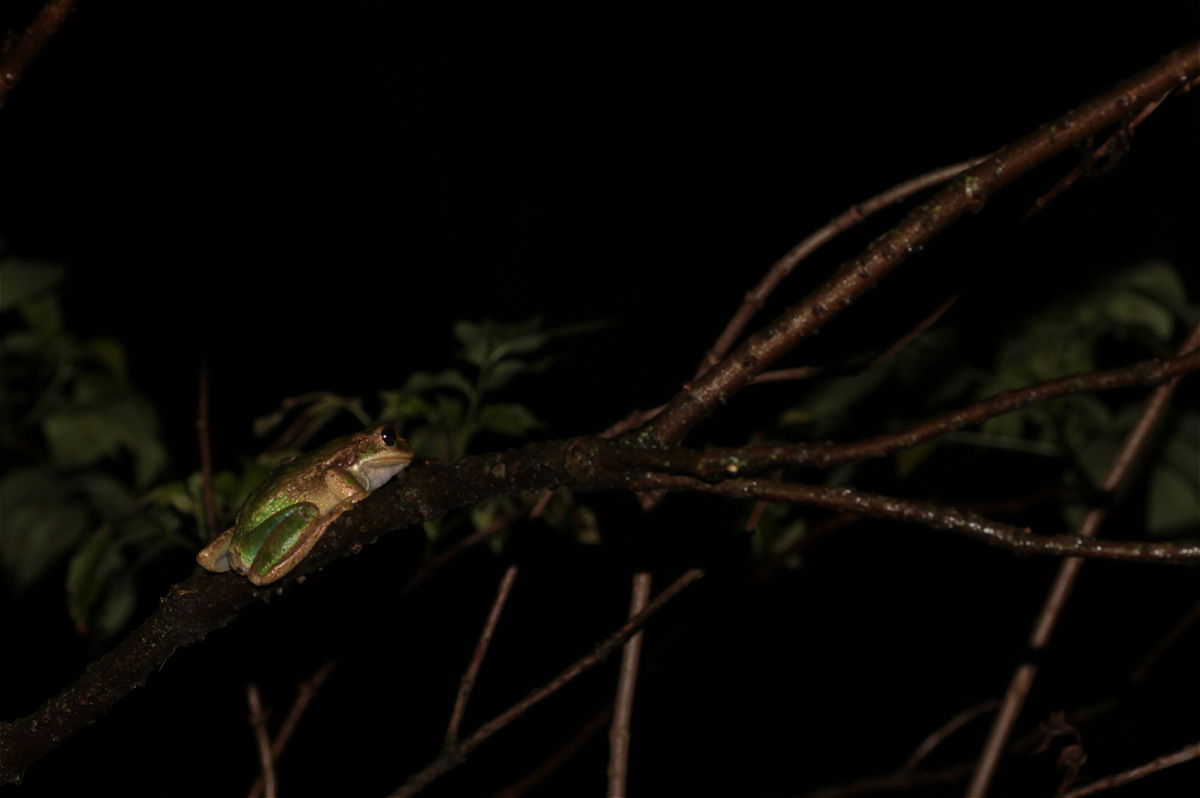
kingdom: Animalia
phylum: Chordata
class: Amphibia
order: Anura
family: Hemiphractidae
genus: Gastrotheca
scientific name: Gastrotheca cuencana
